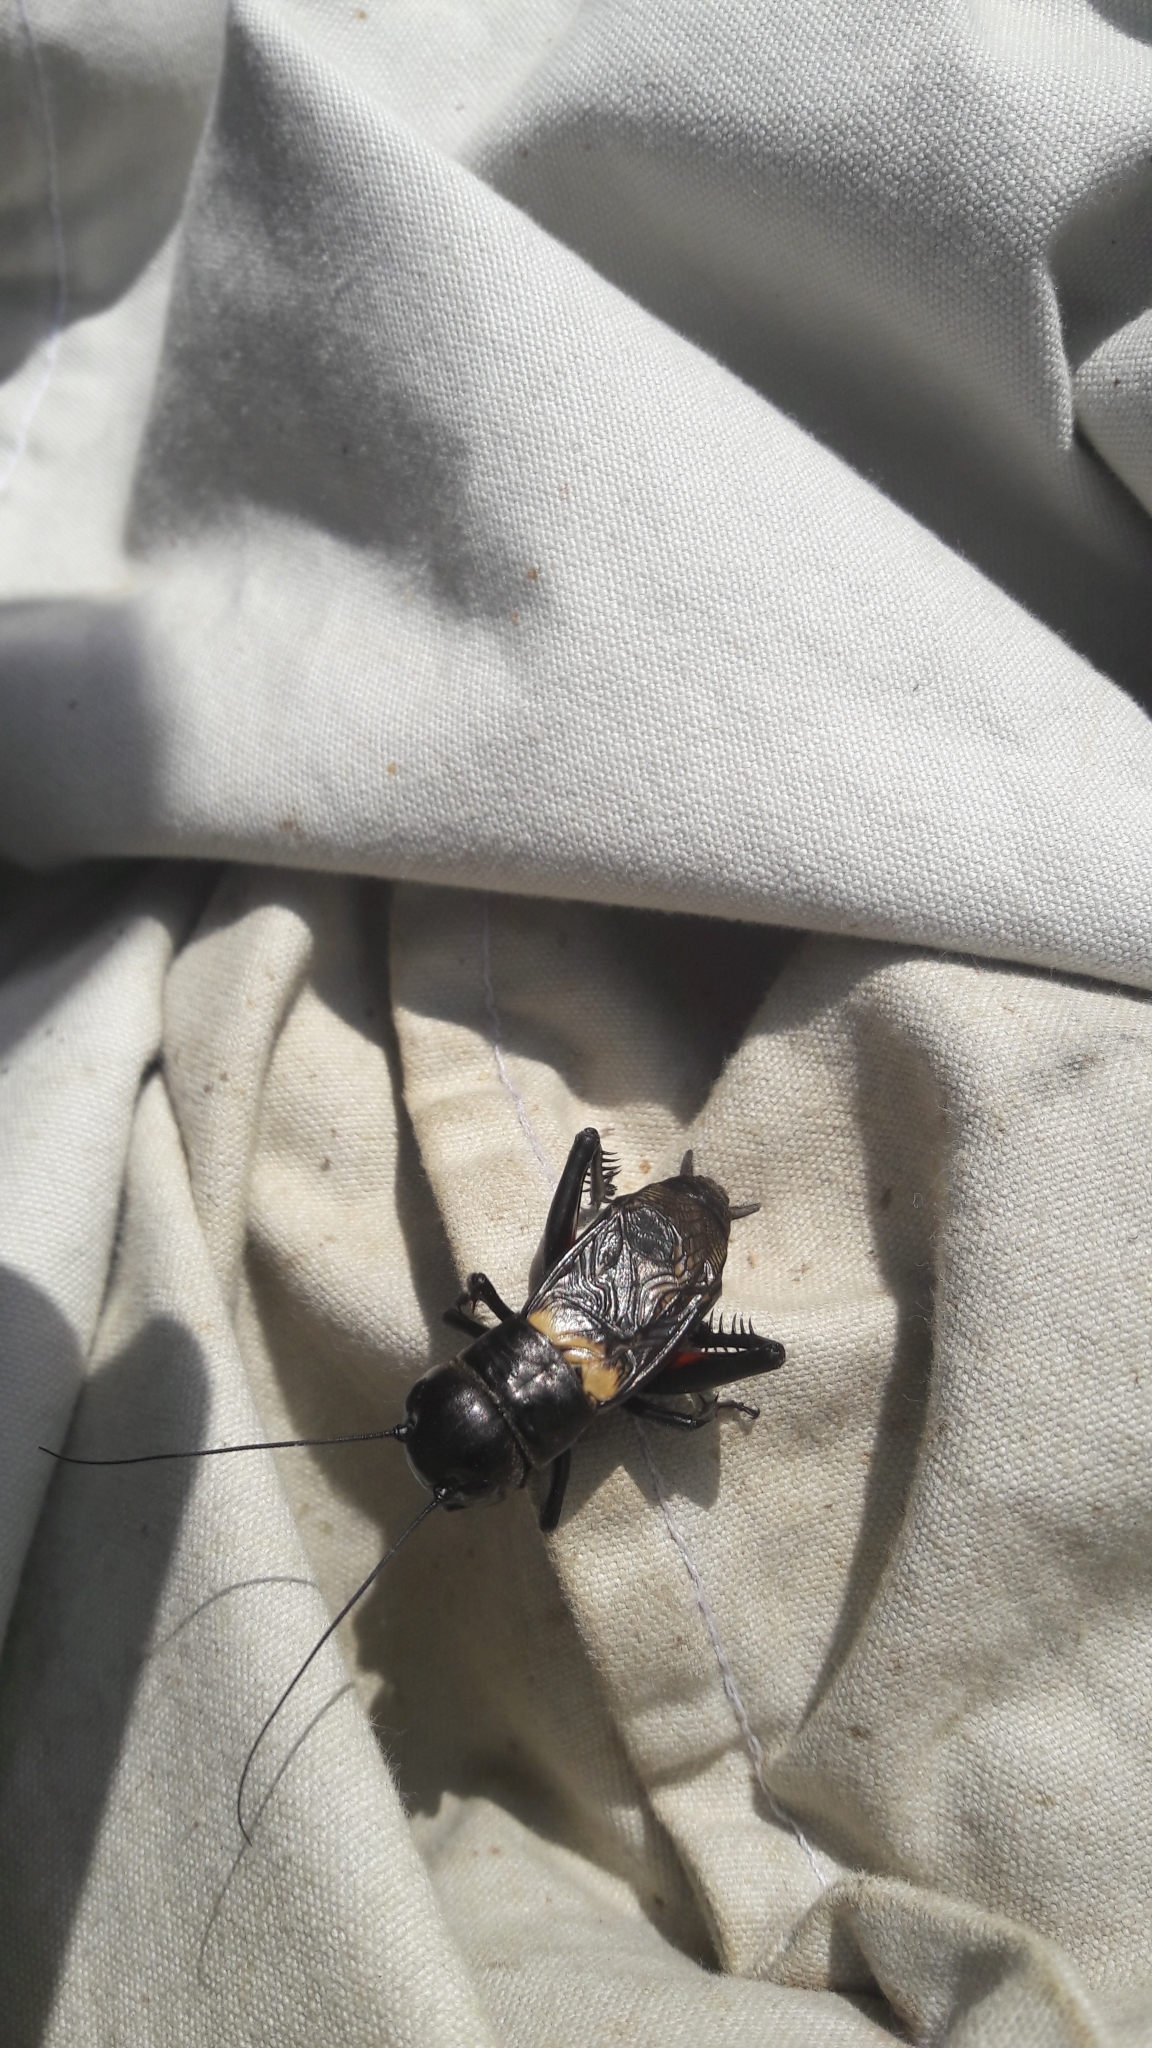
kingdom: Animalia
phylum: Arthropoda
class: Insecta
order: Orthoptera
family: Gryllidae
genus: Gryllus
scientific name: Gryllus campestris
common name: Field cricket
